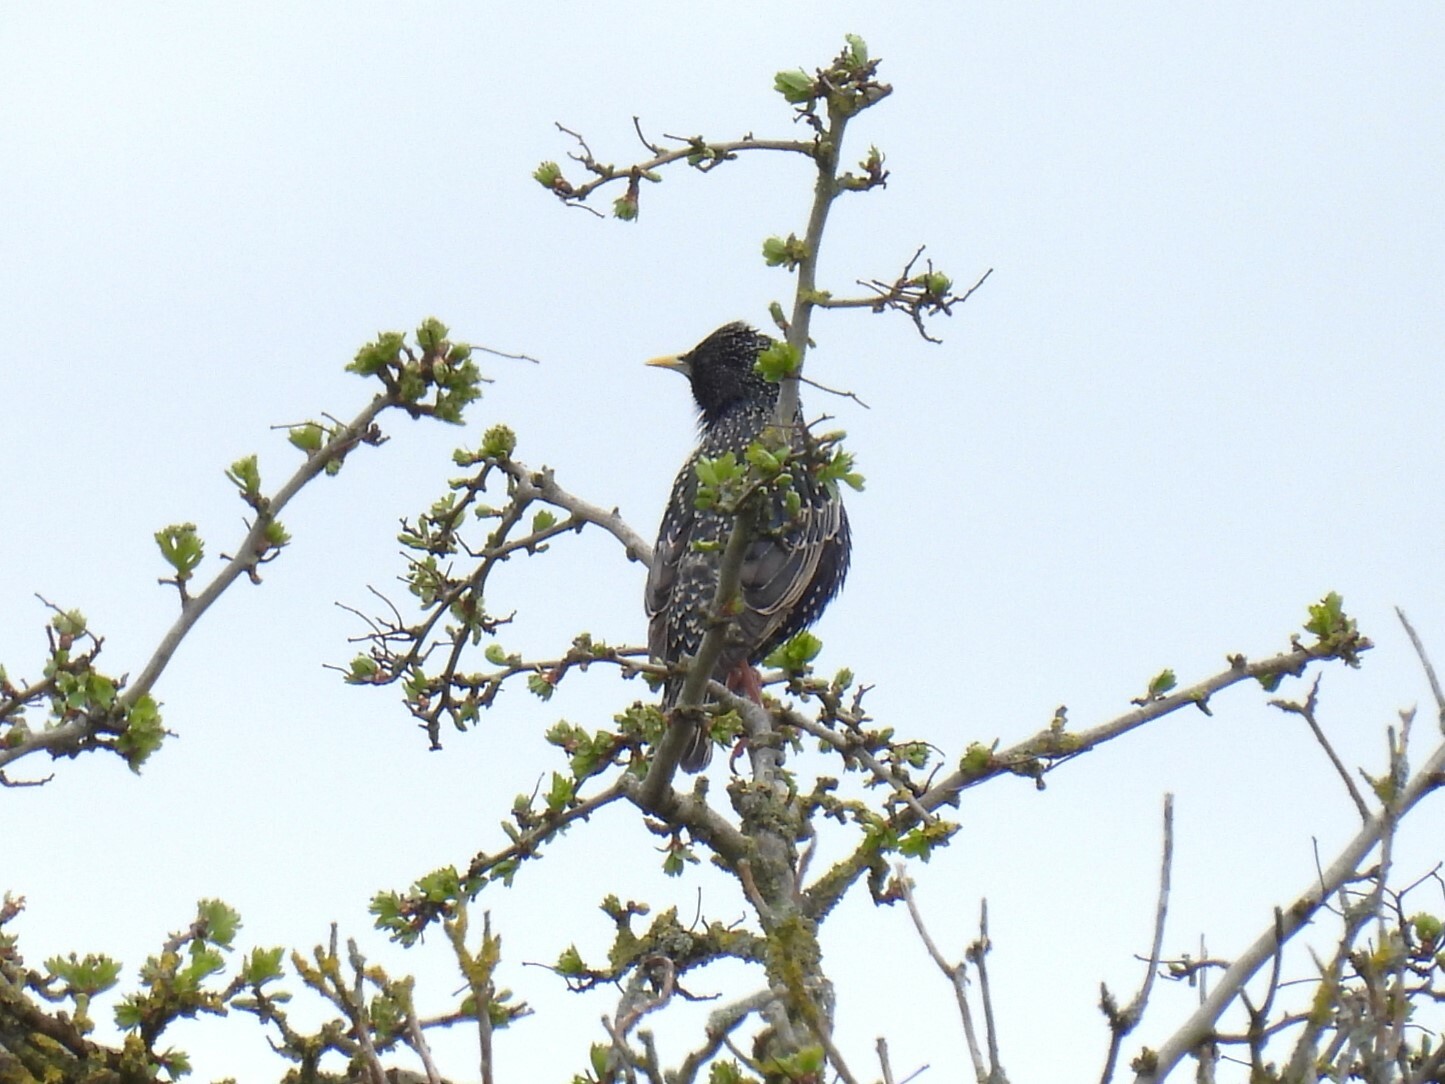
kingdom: Animalia
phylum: Chordata
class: Aves
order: Passeriformes
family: Sturnidae
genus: Sturnus
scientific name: Sturnus vulgaris
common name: Common starling
